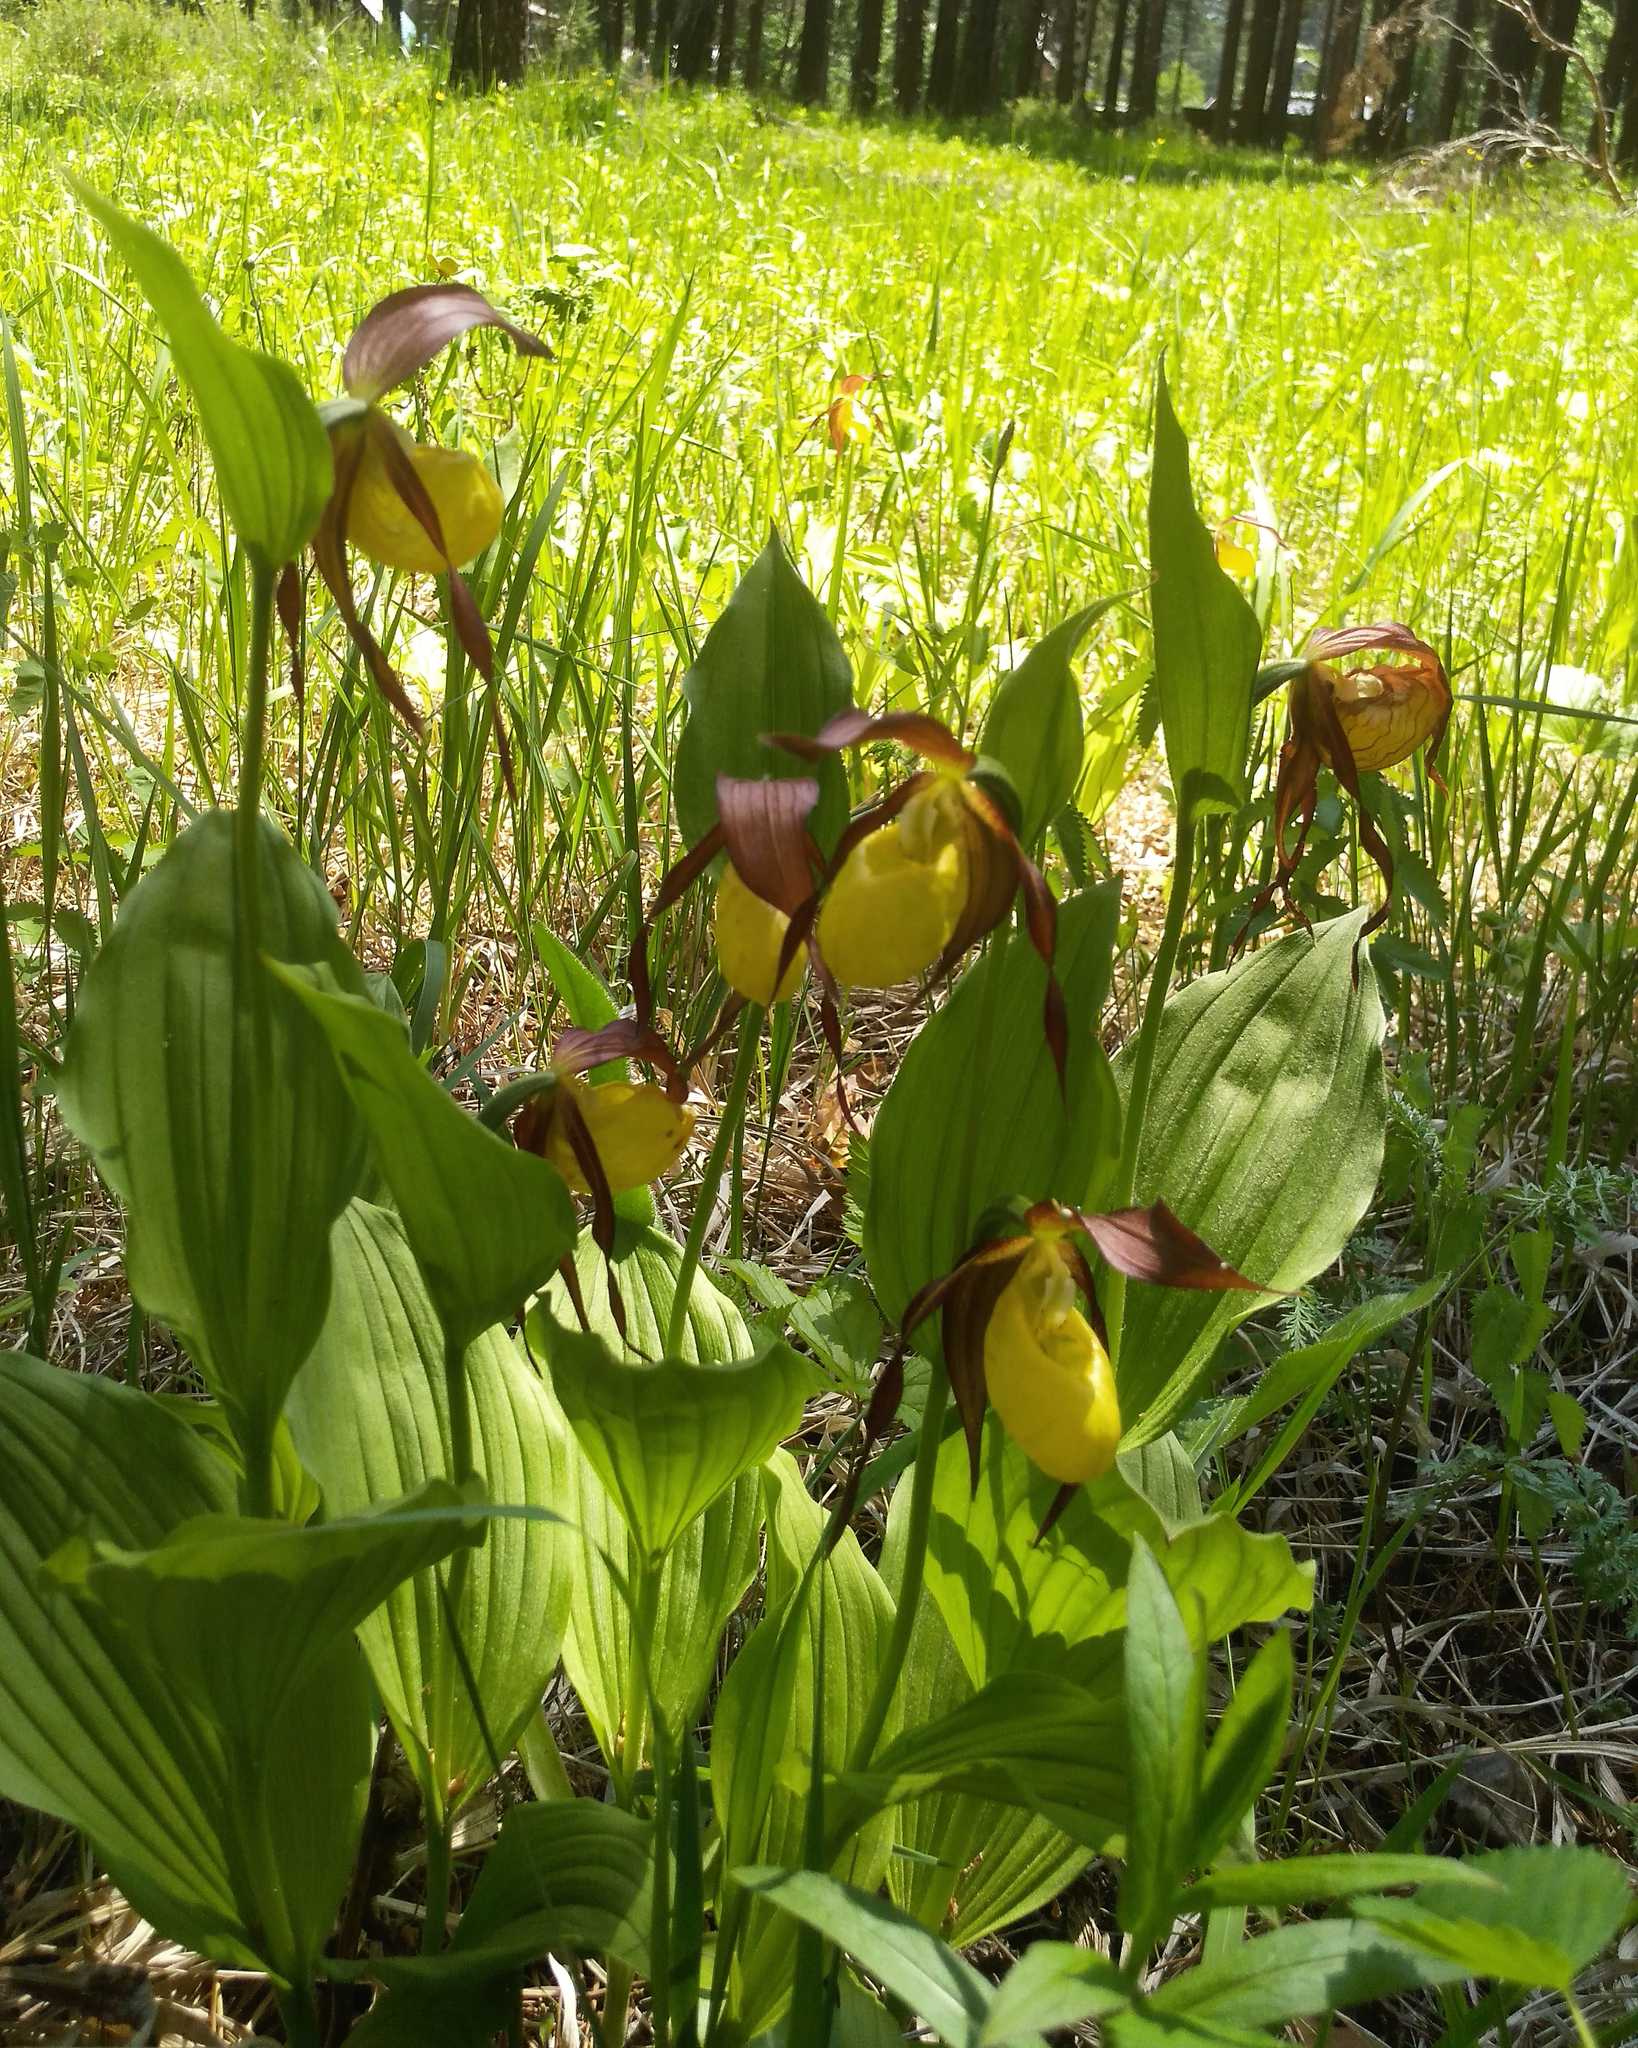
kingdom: Plantae
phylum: Tracheophyta
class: Liliopsida
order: Asparagales
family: Orchidaceae
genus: Cypripedium
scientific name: Cypripedium calceolus
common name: Lady's-slipper
